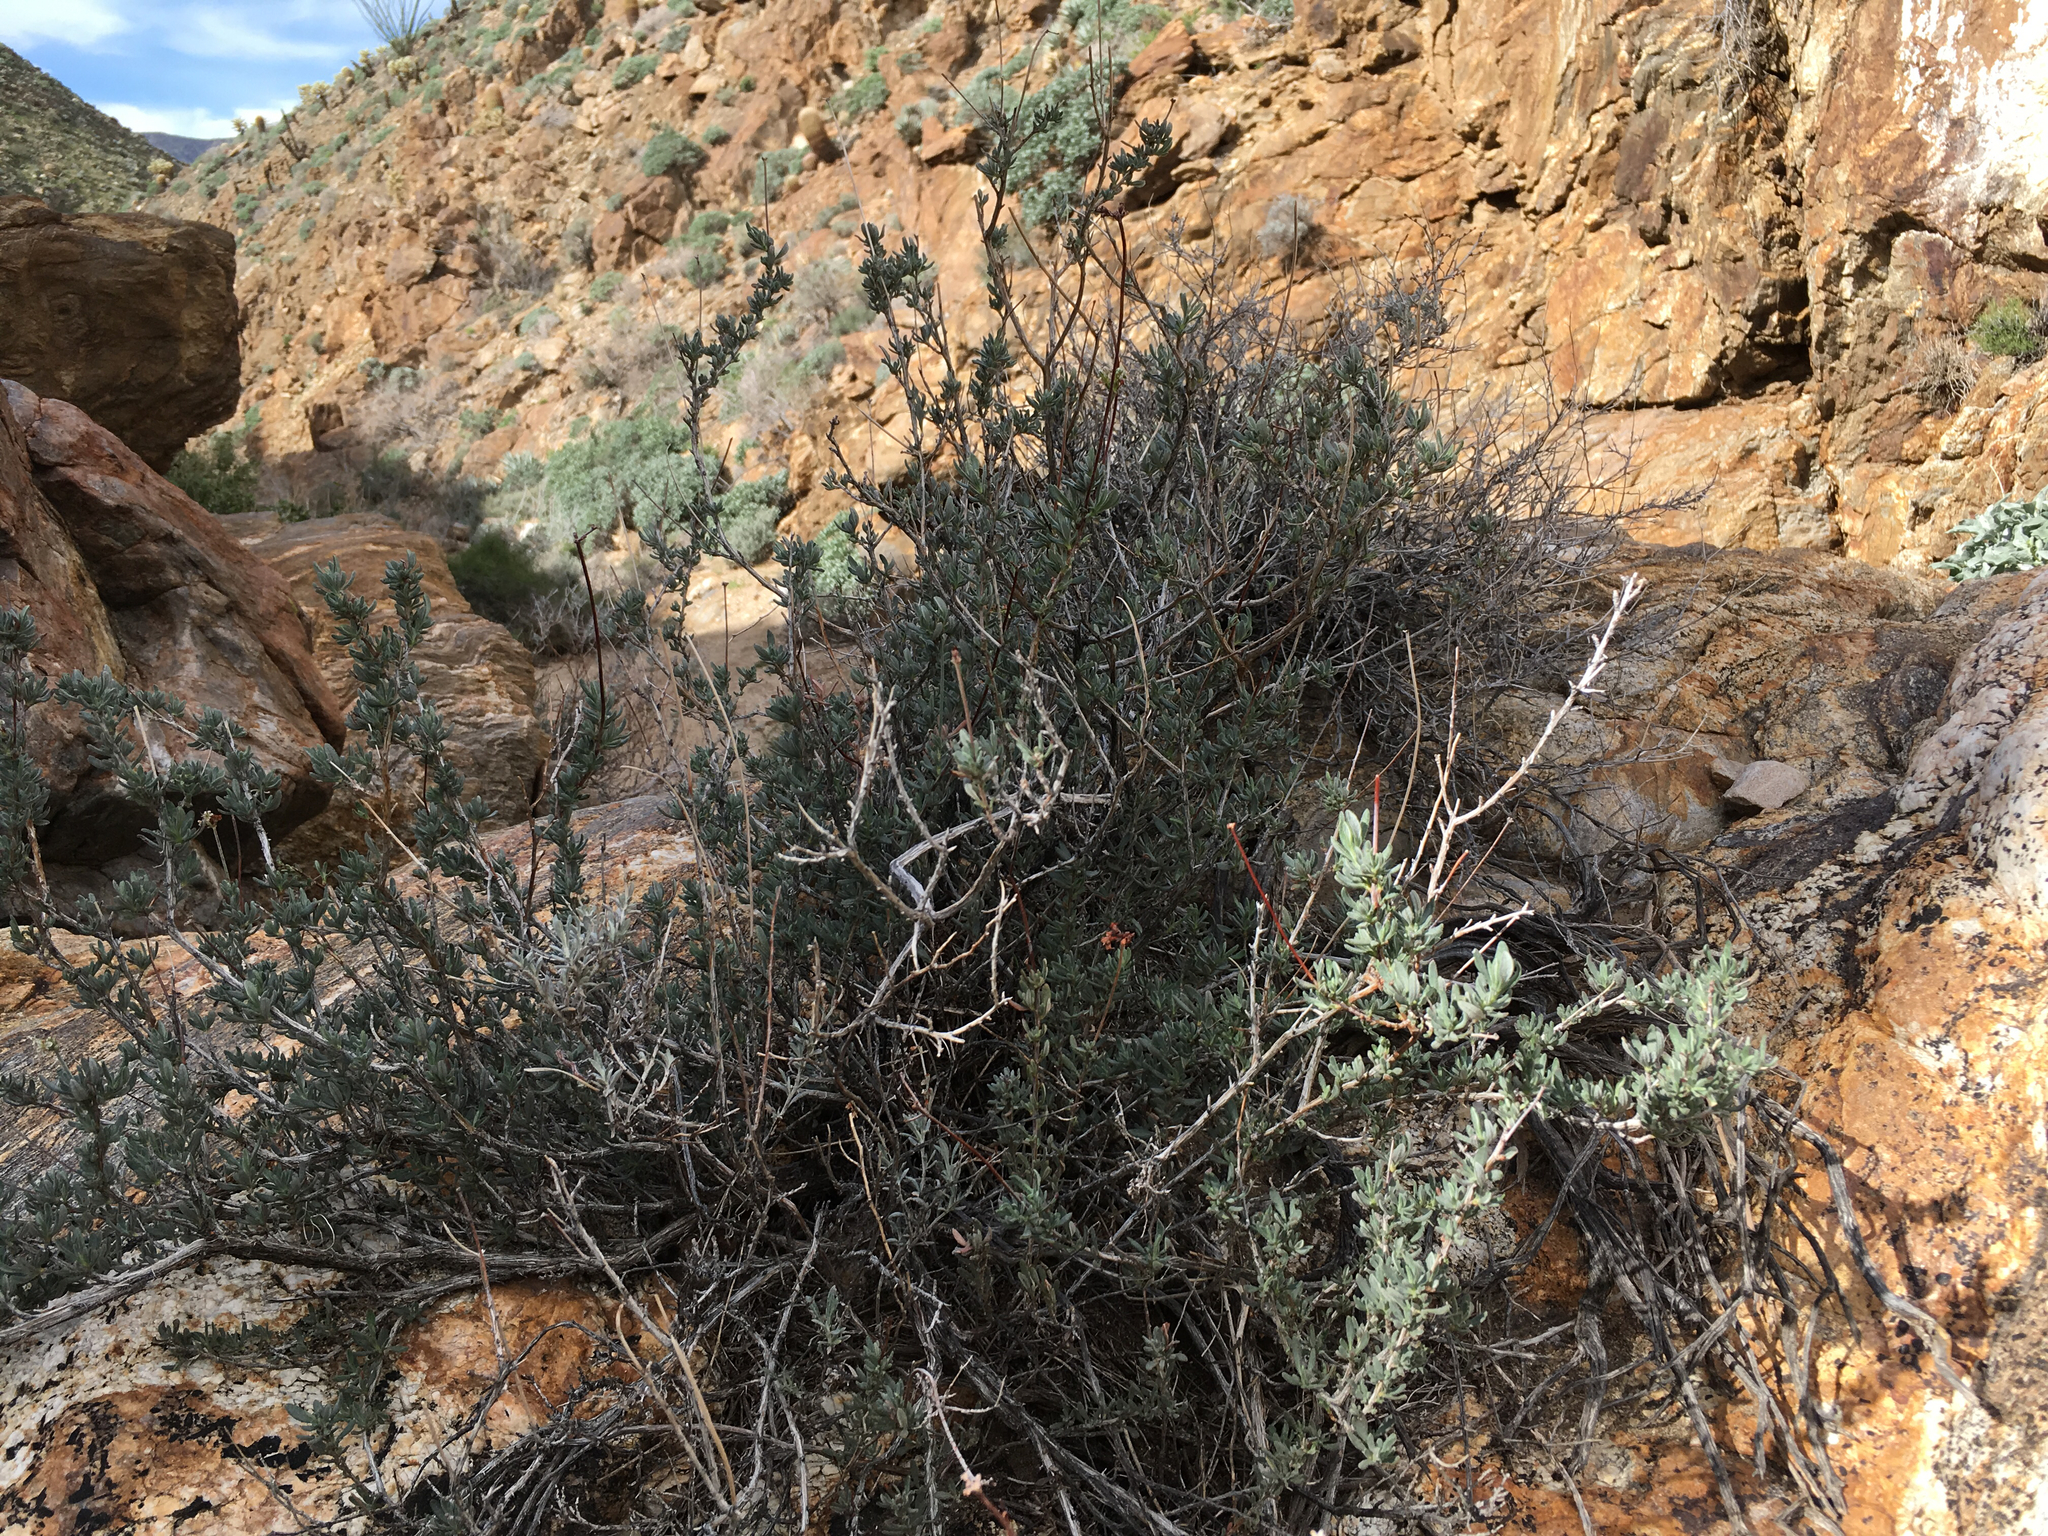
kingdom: Plantae
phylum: Tracheophyta
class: Magnoliopsida
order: Caryophyllales
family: Polygonaceae
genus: Eriogonum
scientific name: Eriogonum fasciculatum
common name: California wild buckwheat
